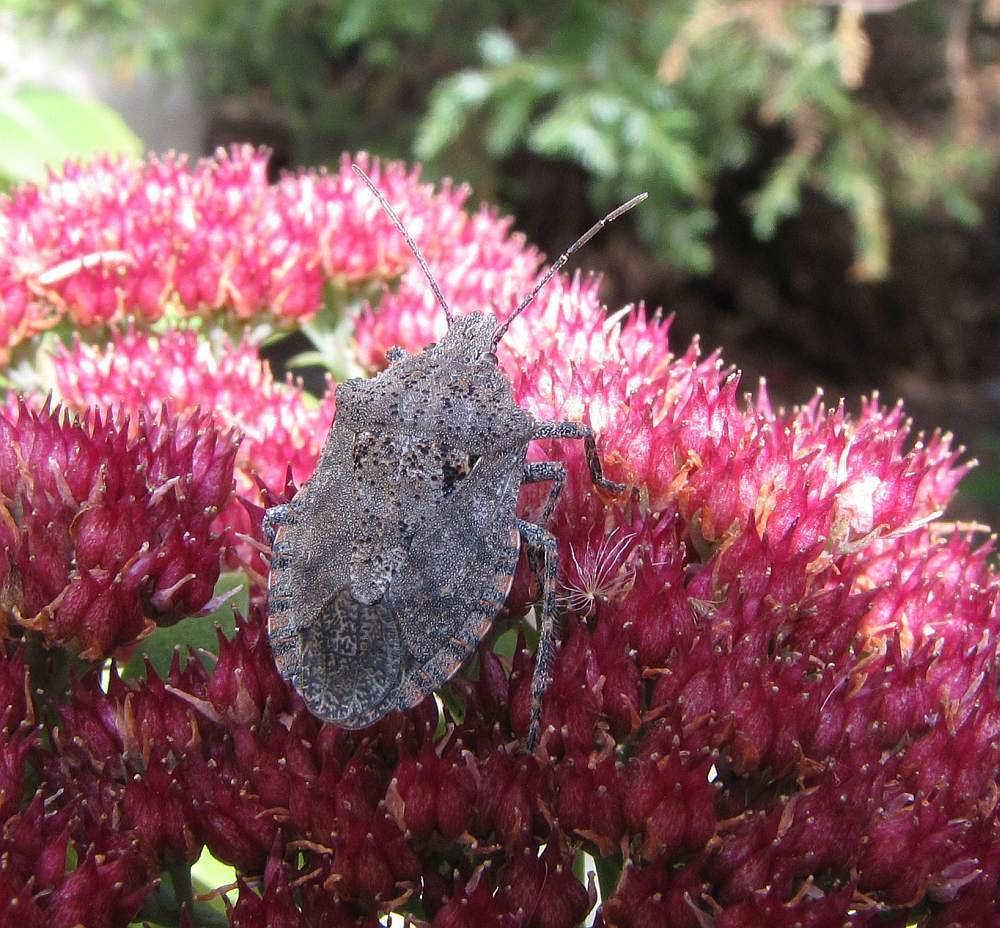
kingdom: Animalia
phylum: Arthropoda
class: Insecta
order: Hemiptera
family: Pentatomidae
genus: Brochymena
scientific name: Brochymena quadripustulata
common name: Four-humped stink bug
